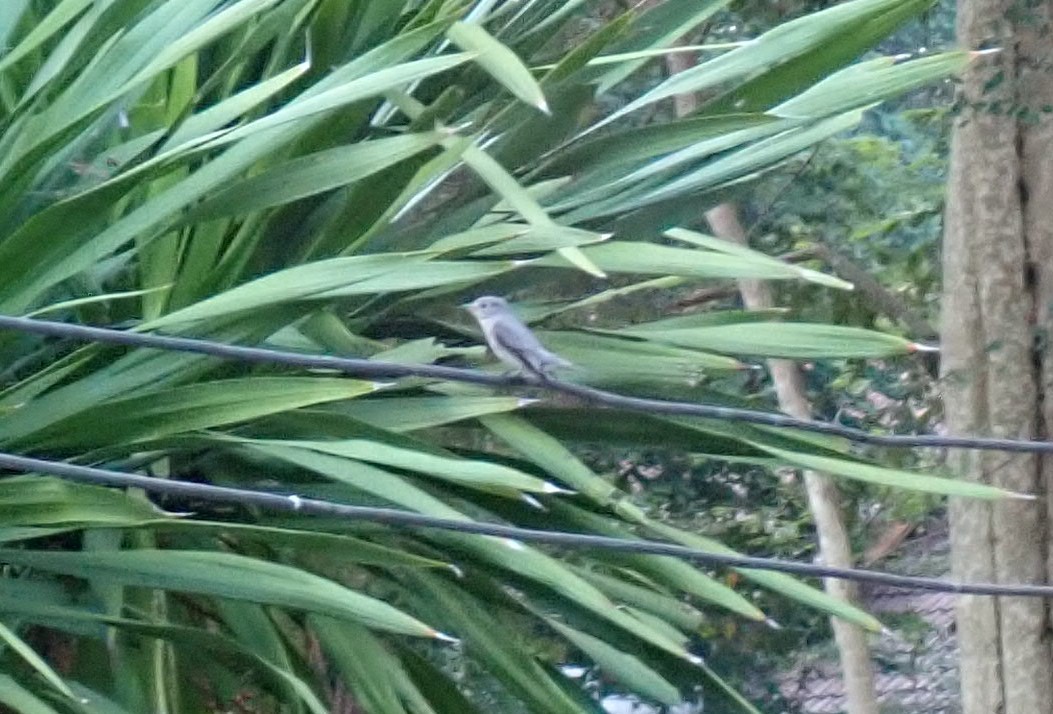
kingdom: Animalia
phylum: Chordata
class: Aves
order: Passeriformes
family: Muscicapidae
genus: Muscicapa
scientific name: Muscicapa latirostris
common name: Asian brown flycatcher
